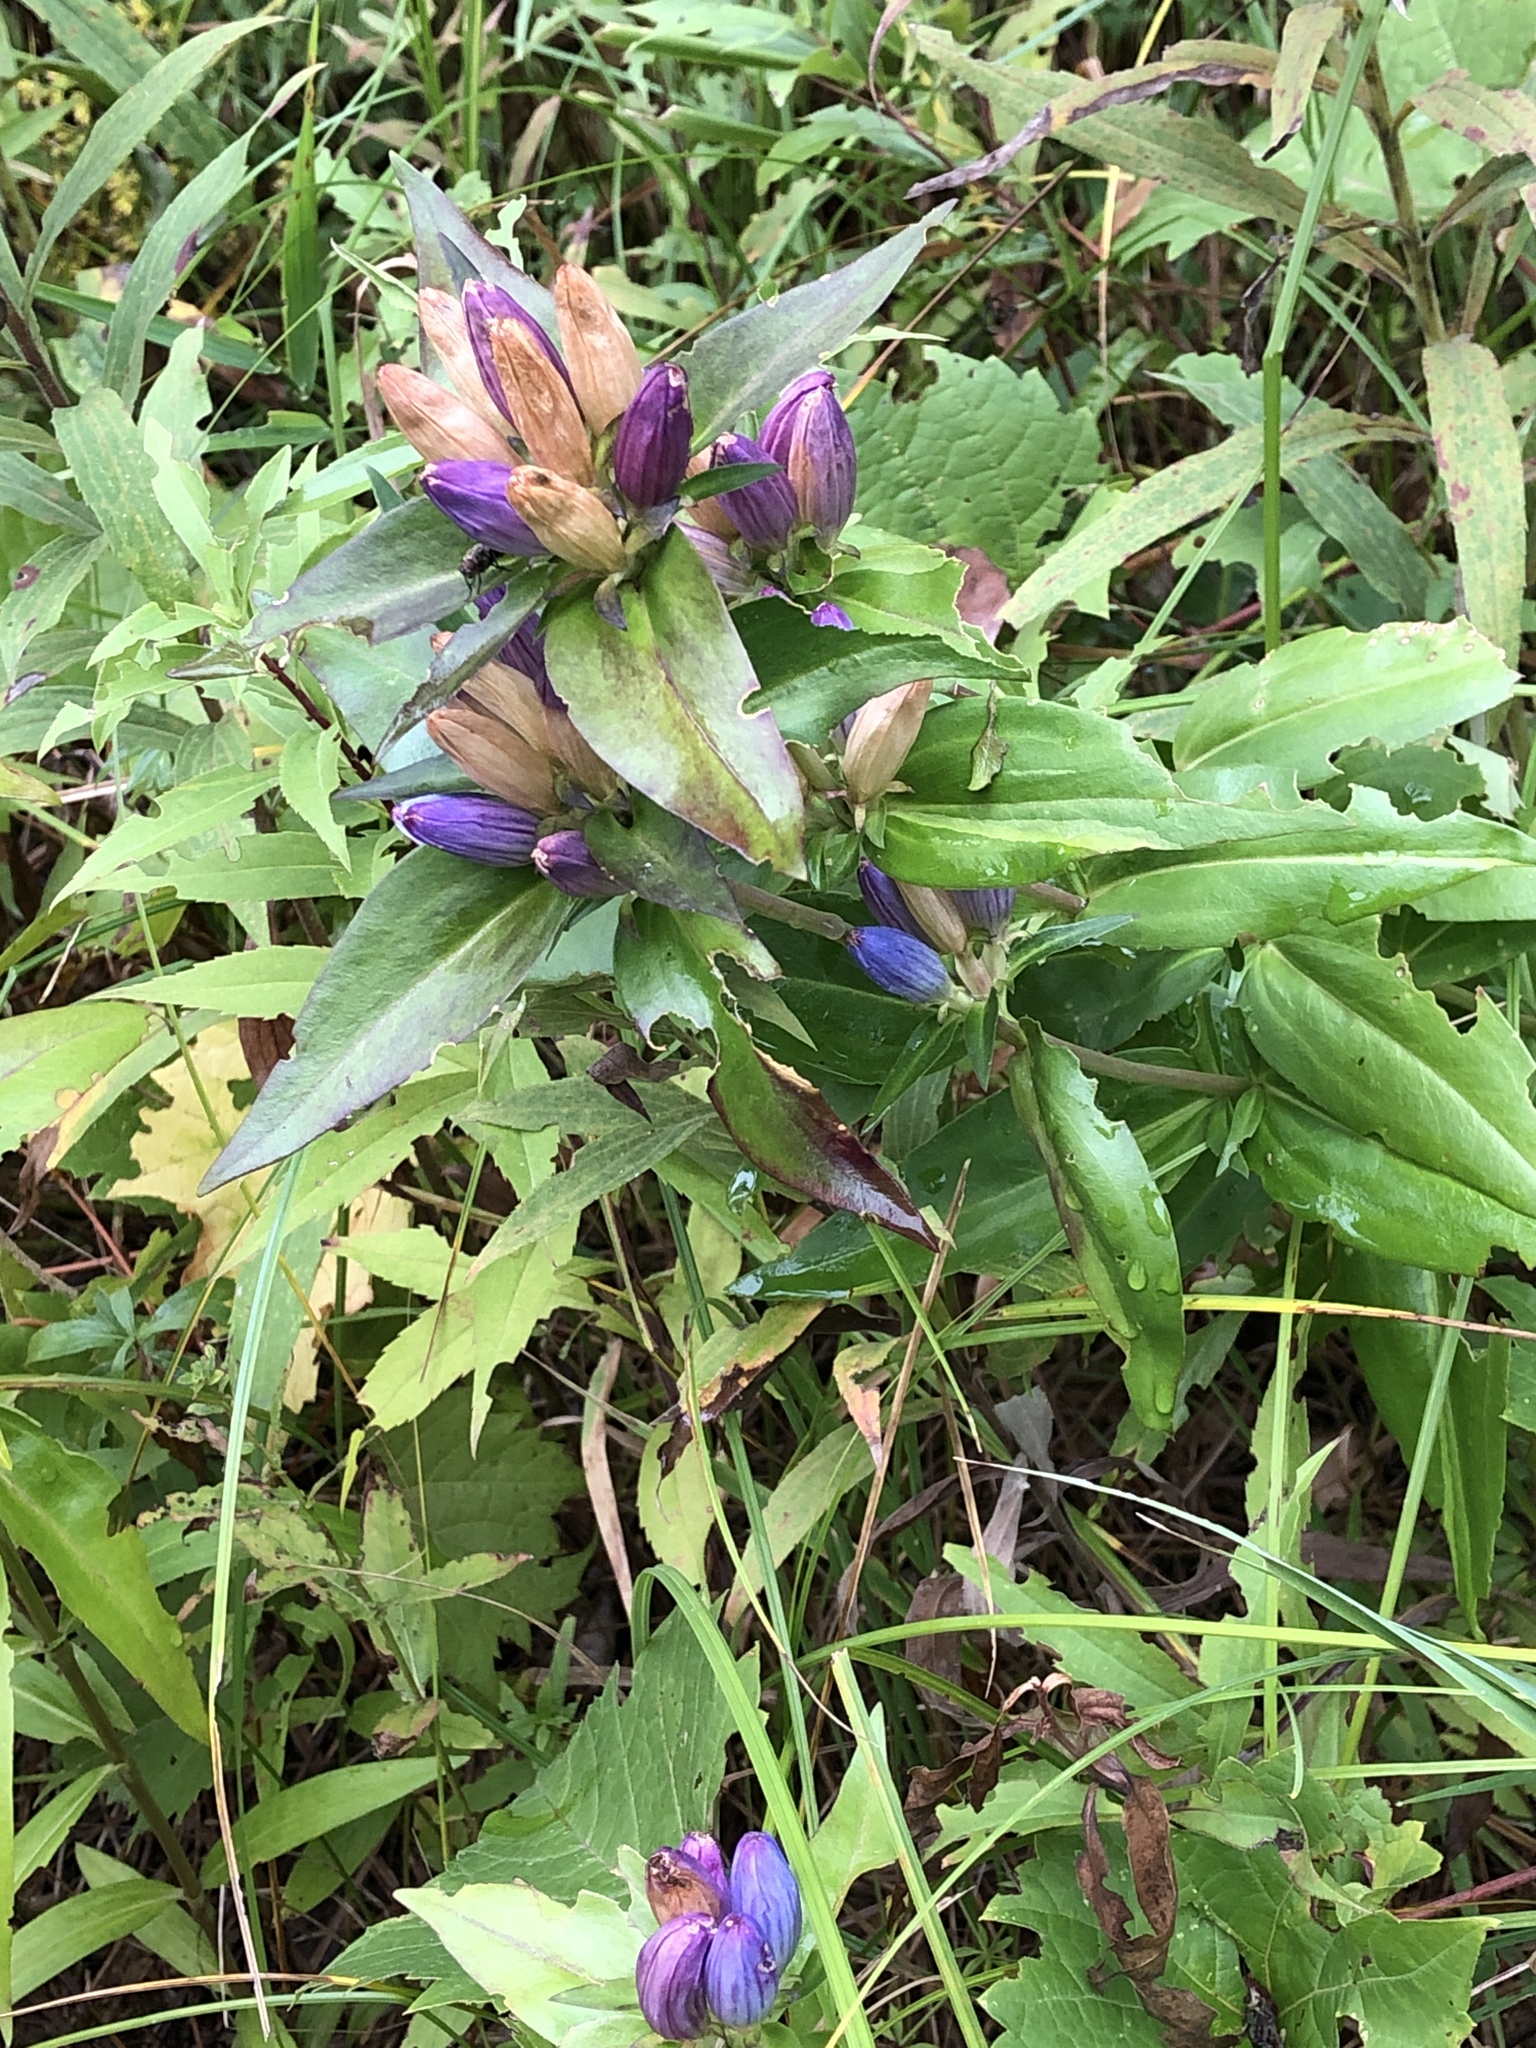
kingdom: Plantae
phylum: Tracheophyta
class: Magnoliopsida
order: Gentianales
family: Gentianaceae
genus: Gentiana
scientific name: Gentiana andrewsii
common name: Bottle gentian
